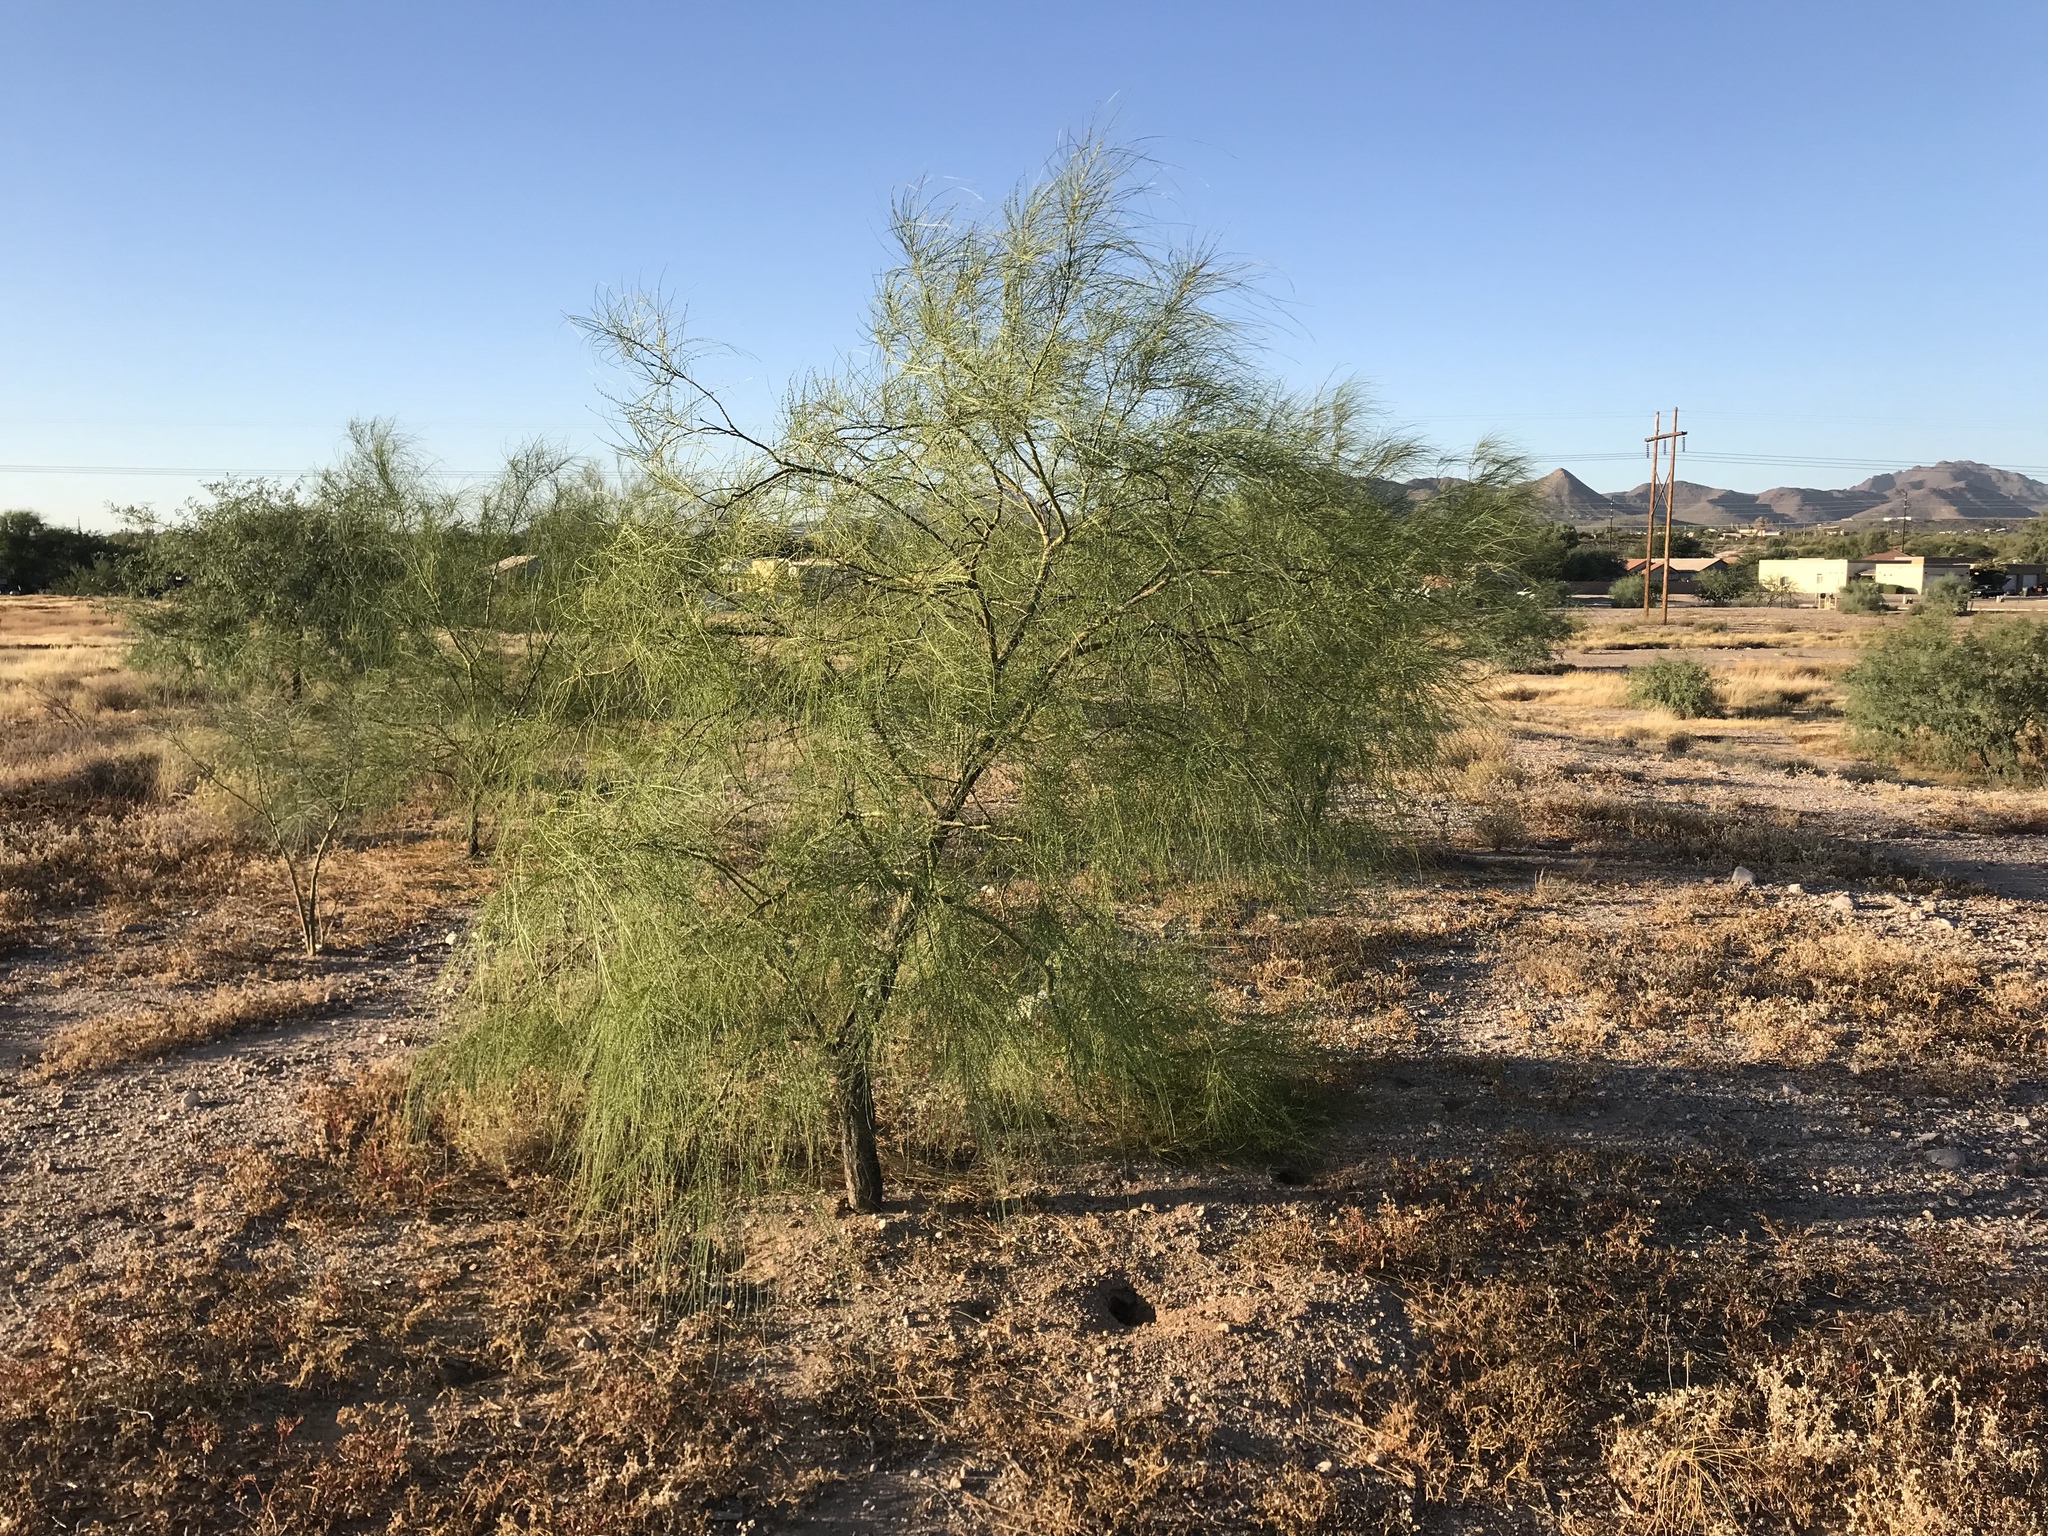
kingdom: Plantae
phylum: Tracheophyta
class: Magnoliopsida
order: Fabales
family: Fabaceae
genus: Parkinsonia
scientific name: Parkinsonia aculeata
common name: Jerusalem thorn
